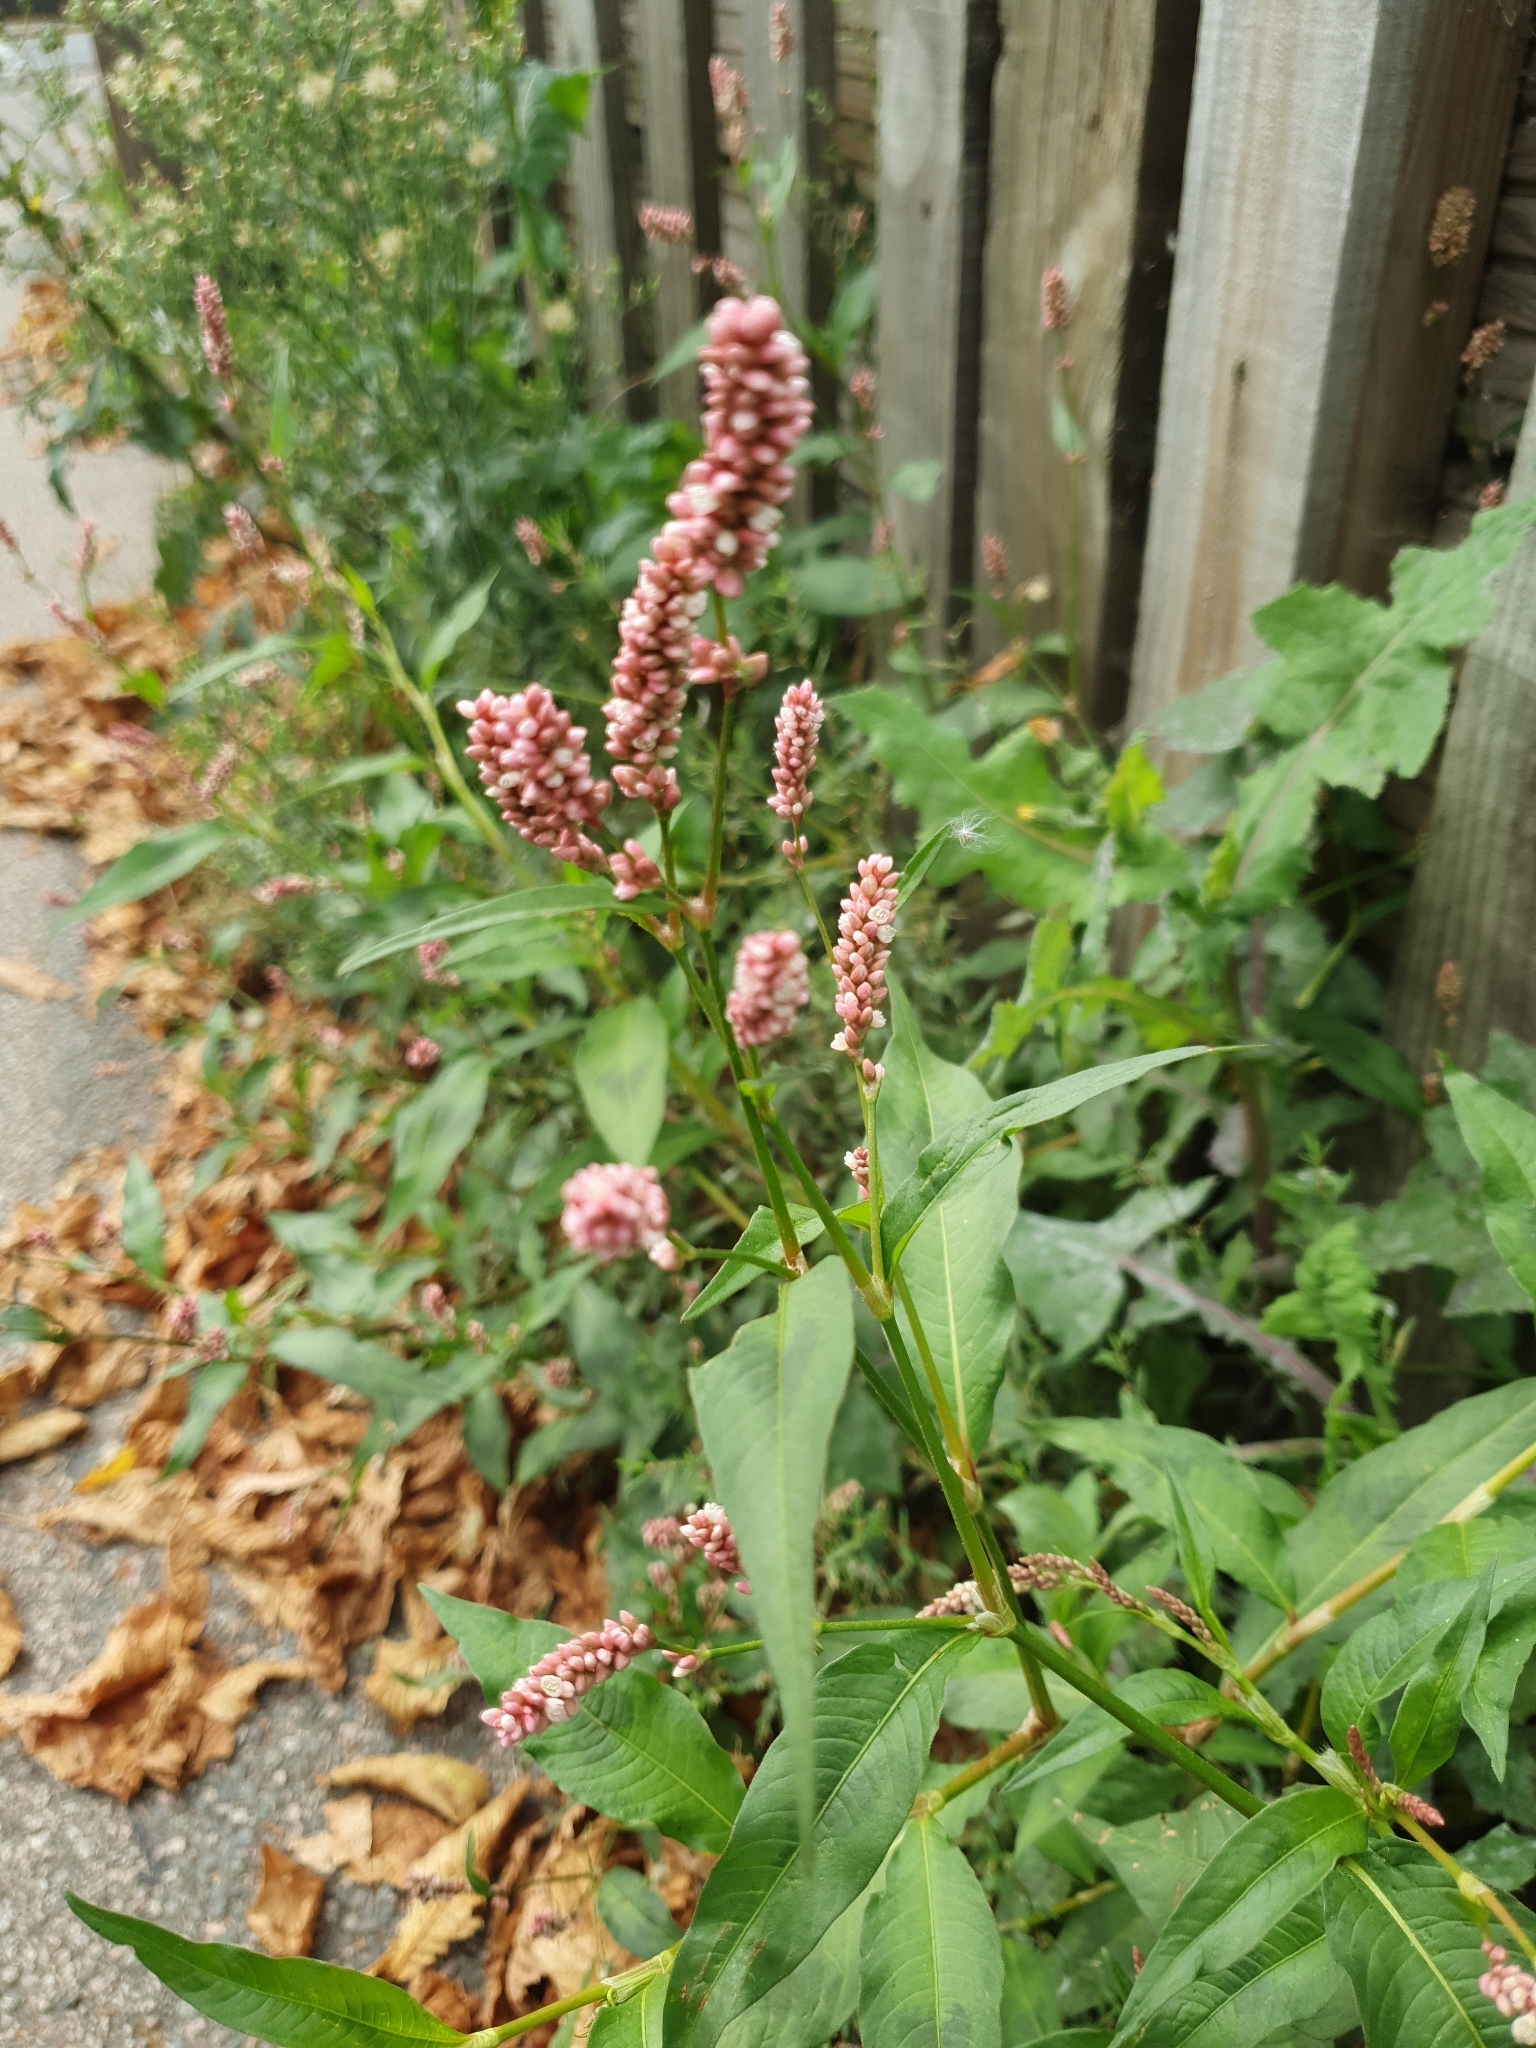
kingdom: Plantae
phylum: Tracheophyta
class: Magnoliopsida
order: Caryophyllales
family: Polygonaceae
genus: Persicaria
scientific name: Persicaria maculosa
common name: Redshank
